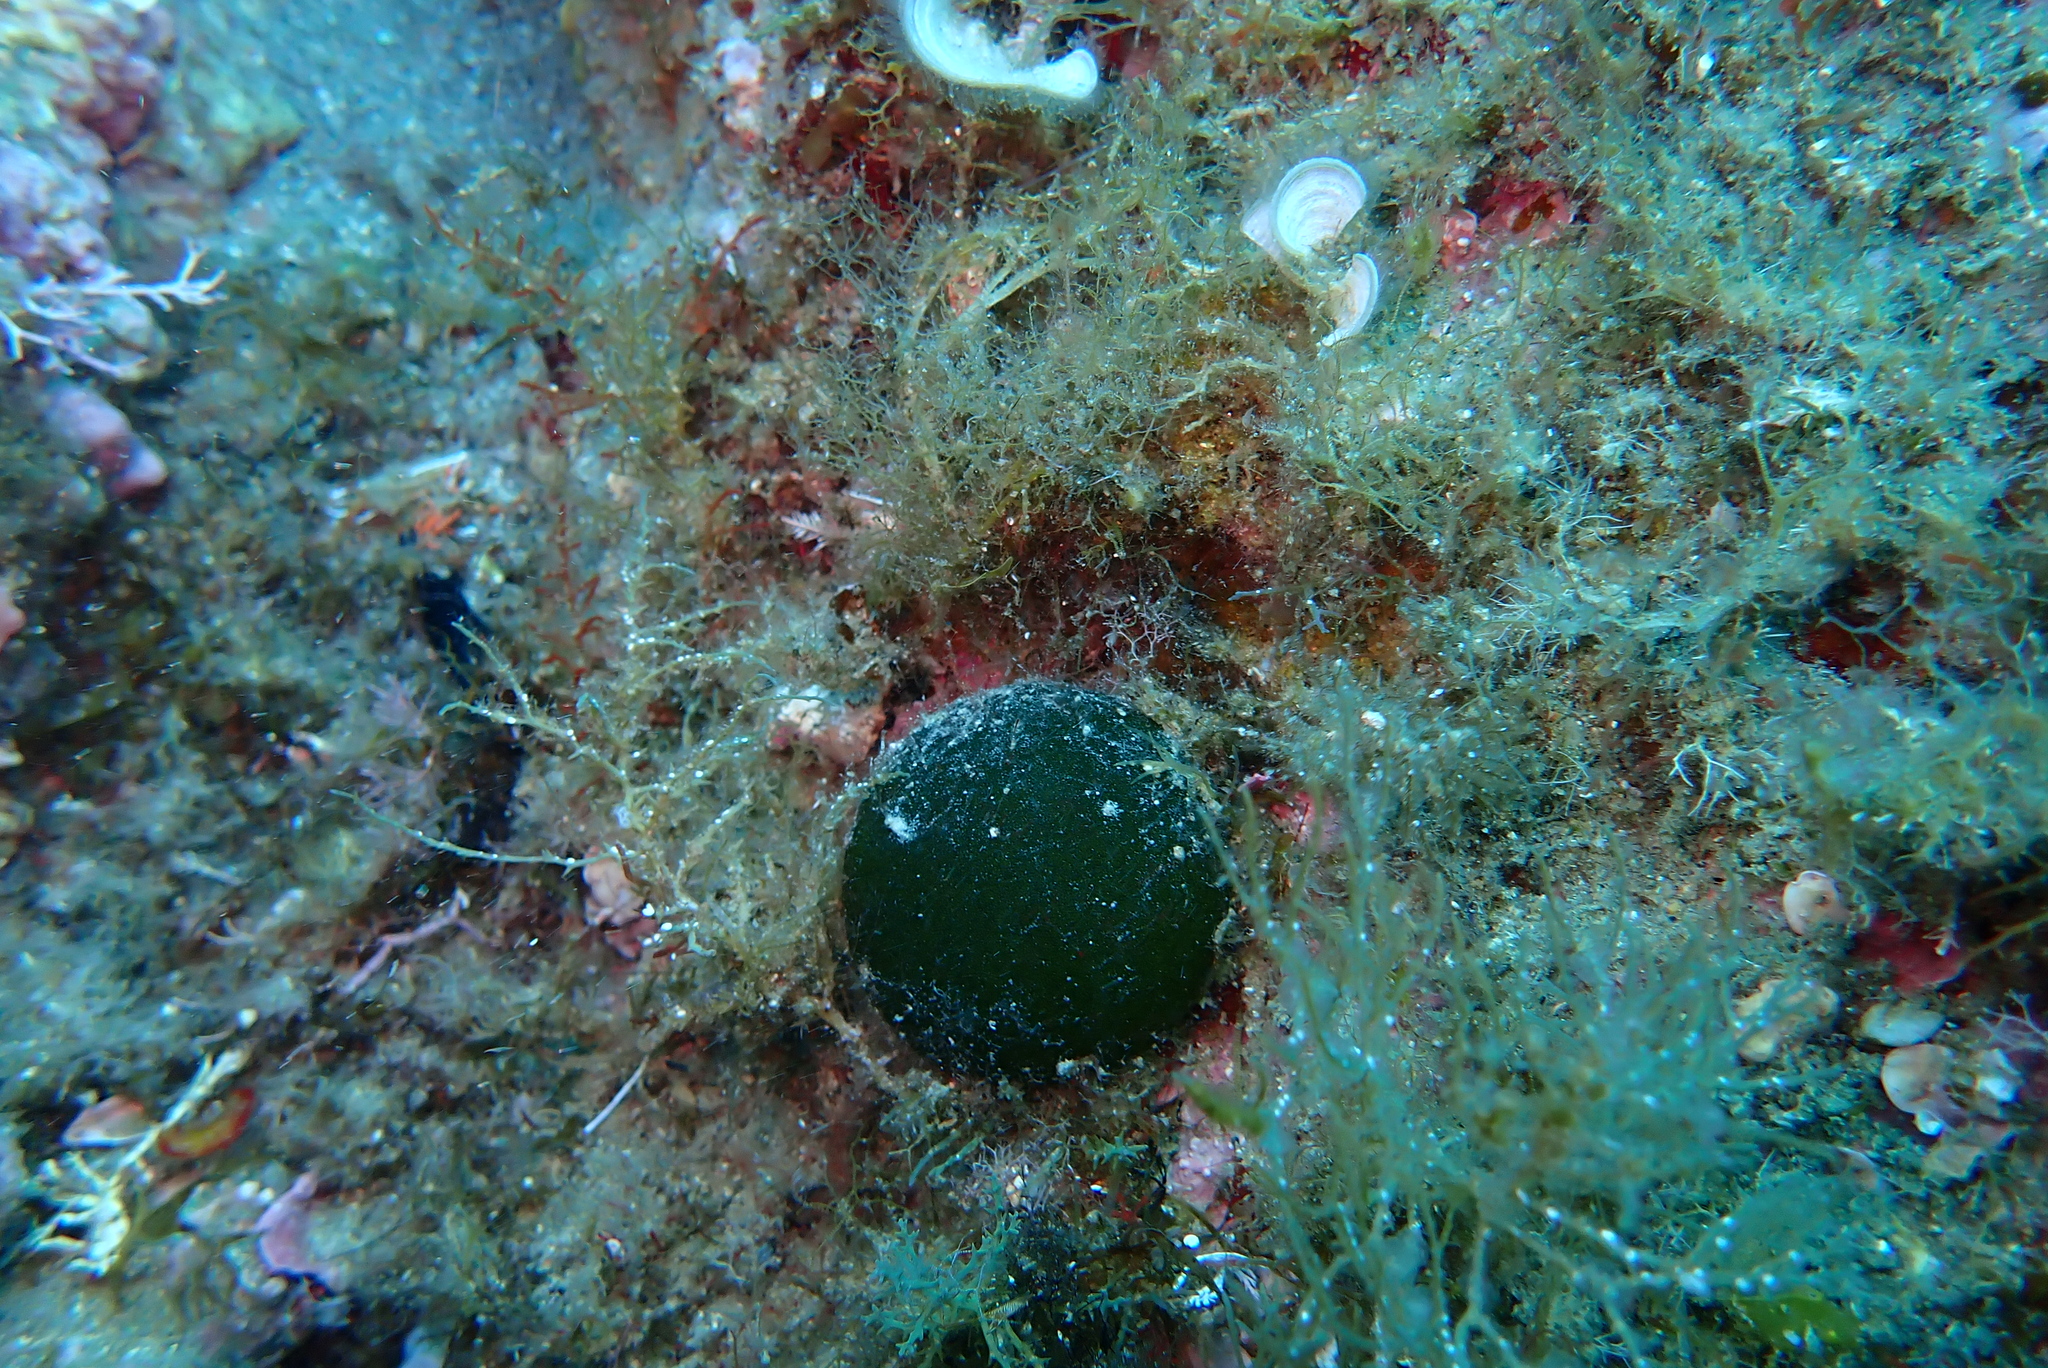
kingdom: Plantae
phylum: Chlorophyta
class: Ulvophyceae
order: Bryopsidales
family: Codiaceae
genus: Codium
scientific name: Codium bursa
